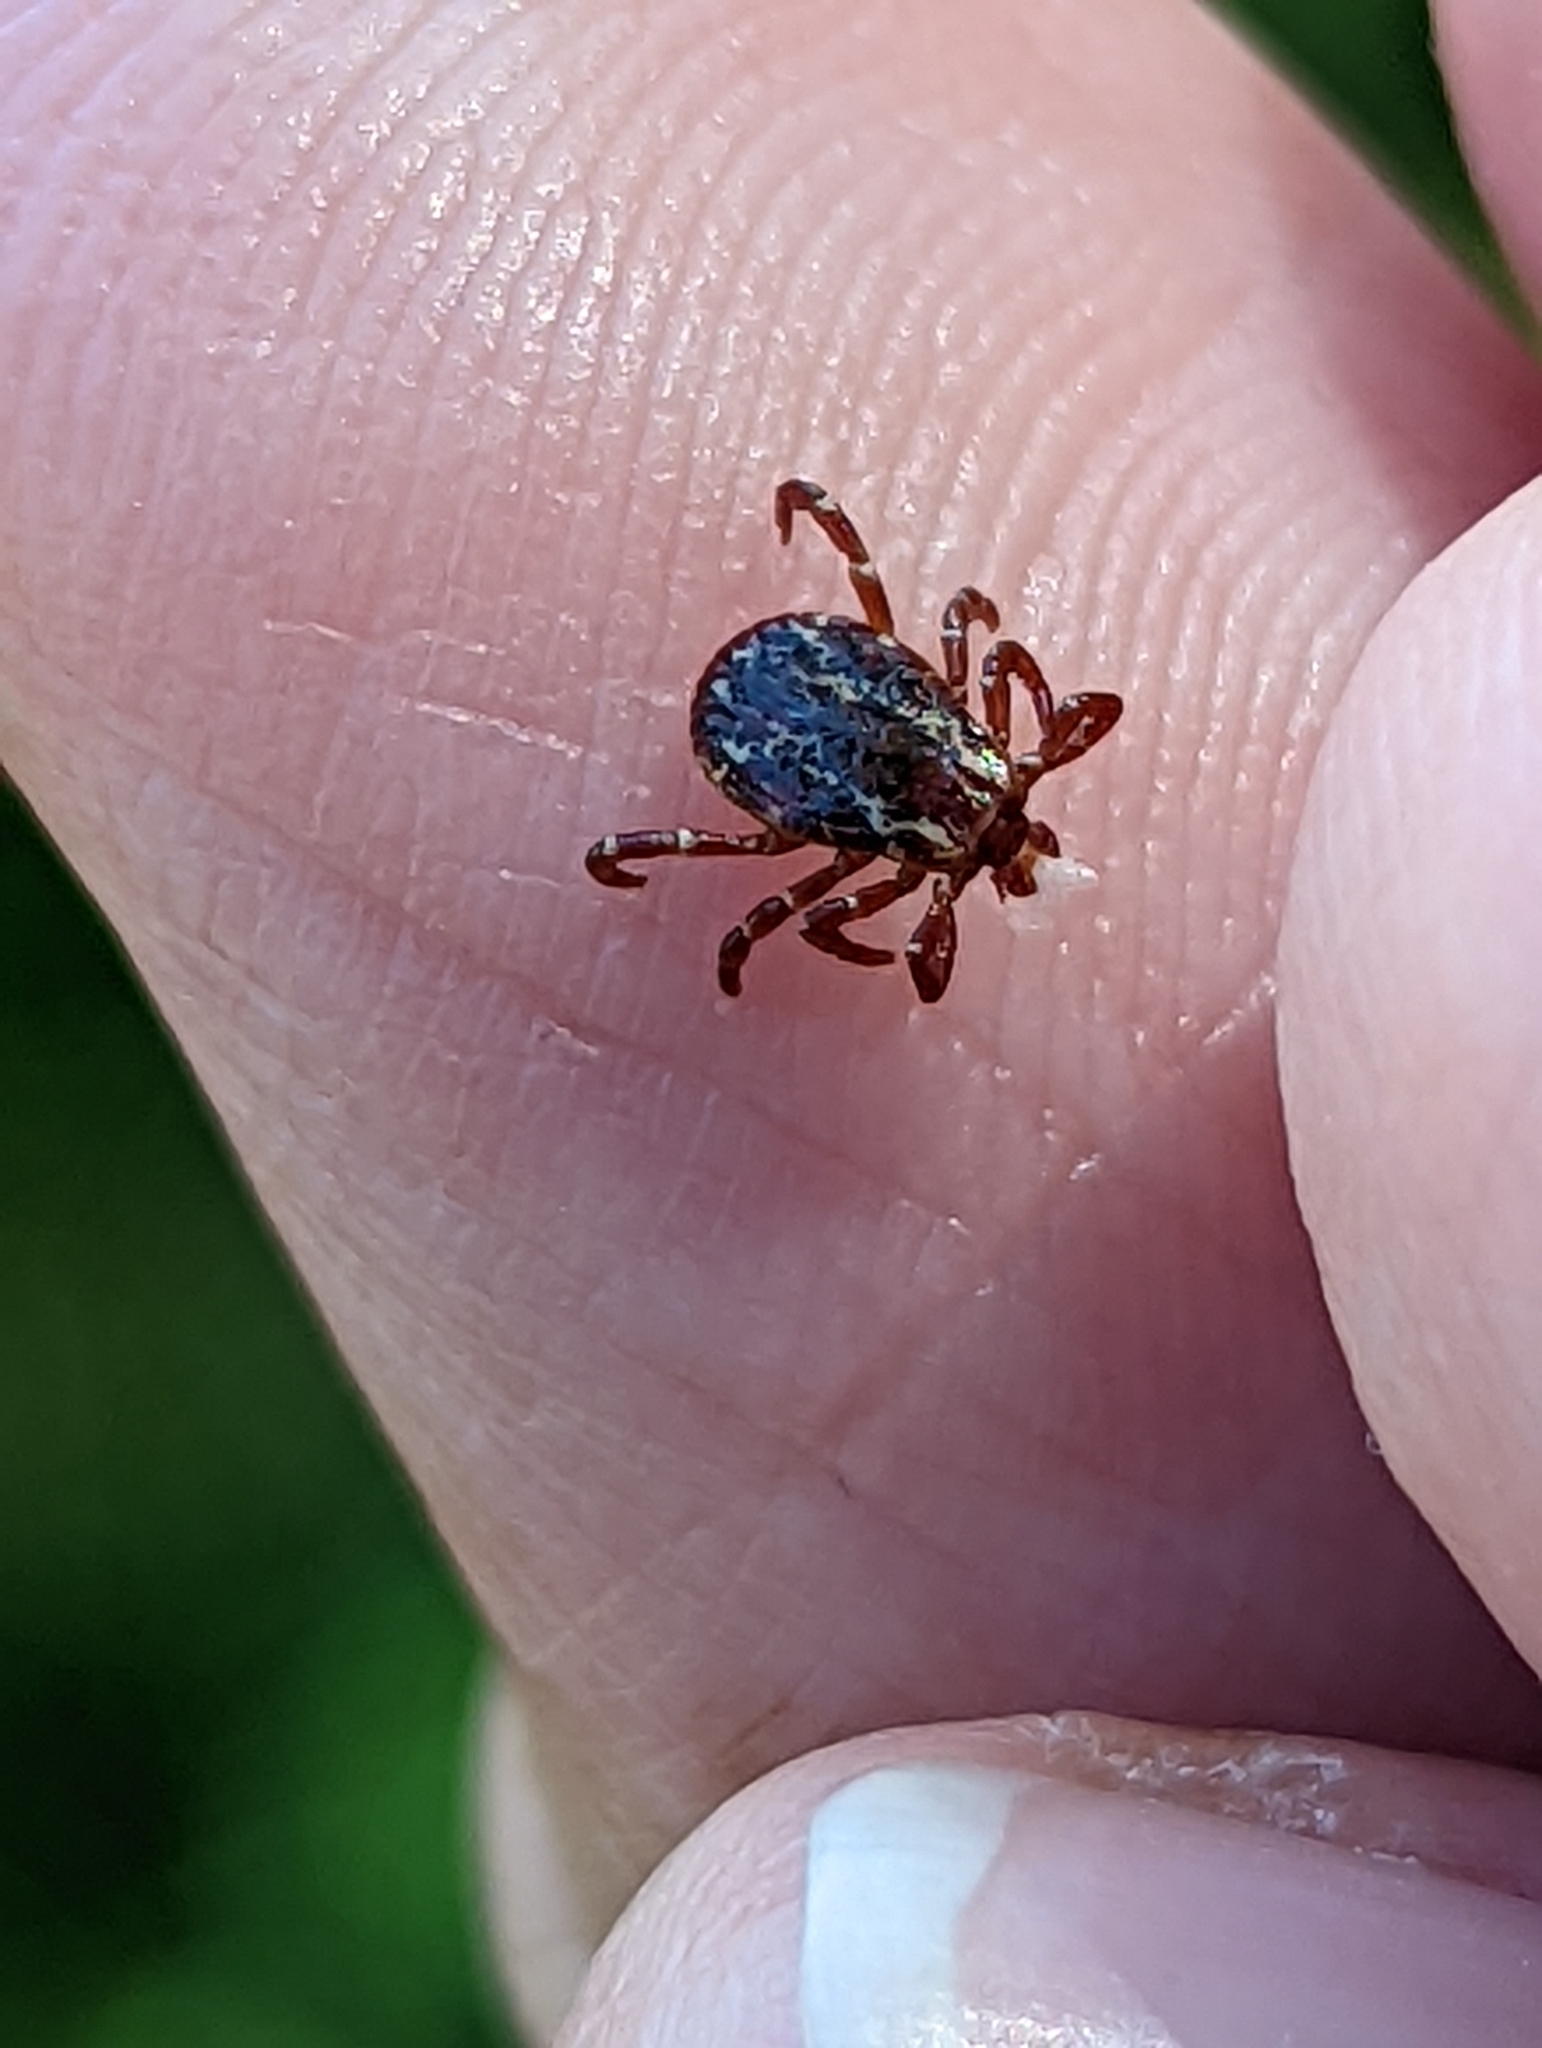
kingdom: Animalia
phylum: Arthropoda
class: Arachnida
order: Ixodida
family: Ixodidae
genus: Dermacentor
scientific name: Dermacentor variabilis
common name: American dog tick
